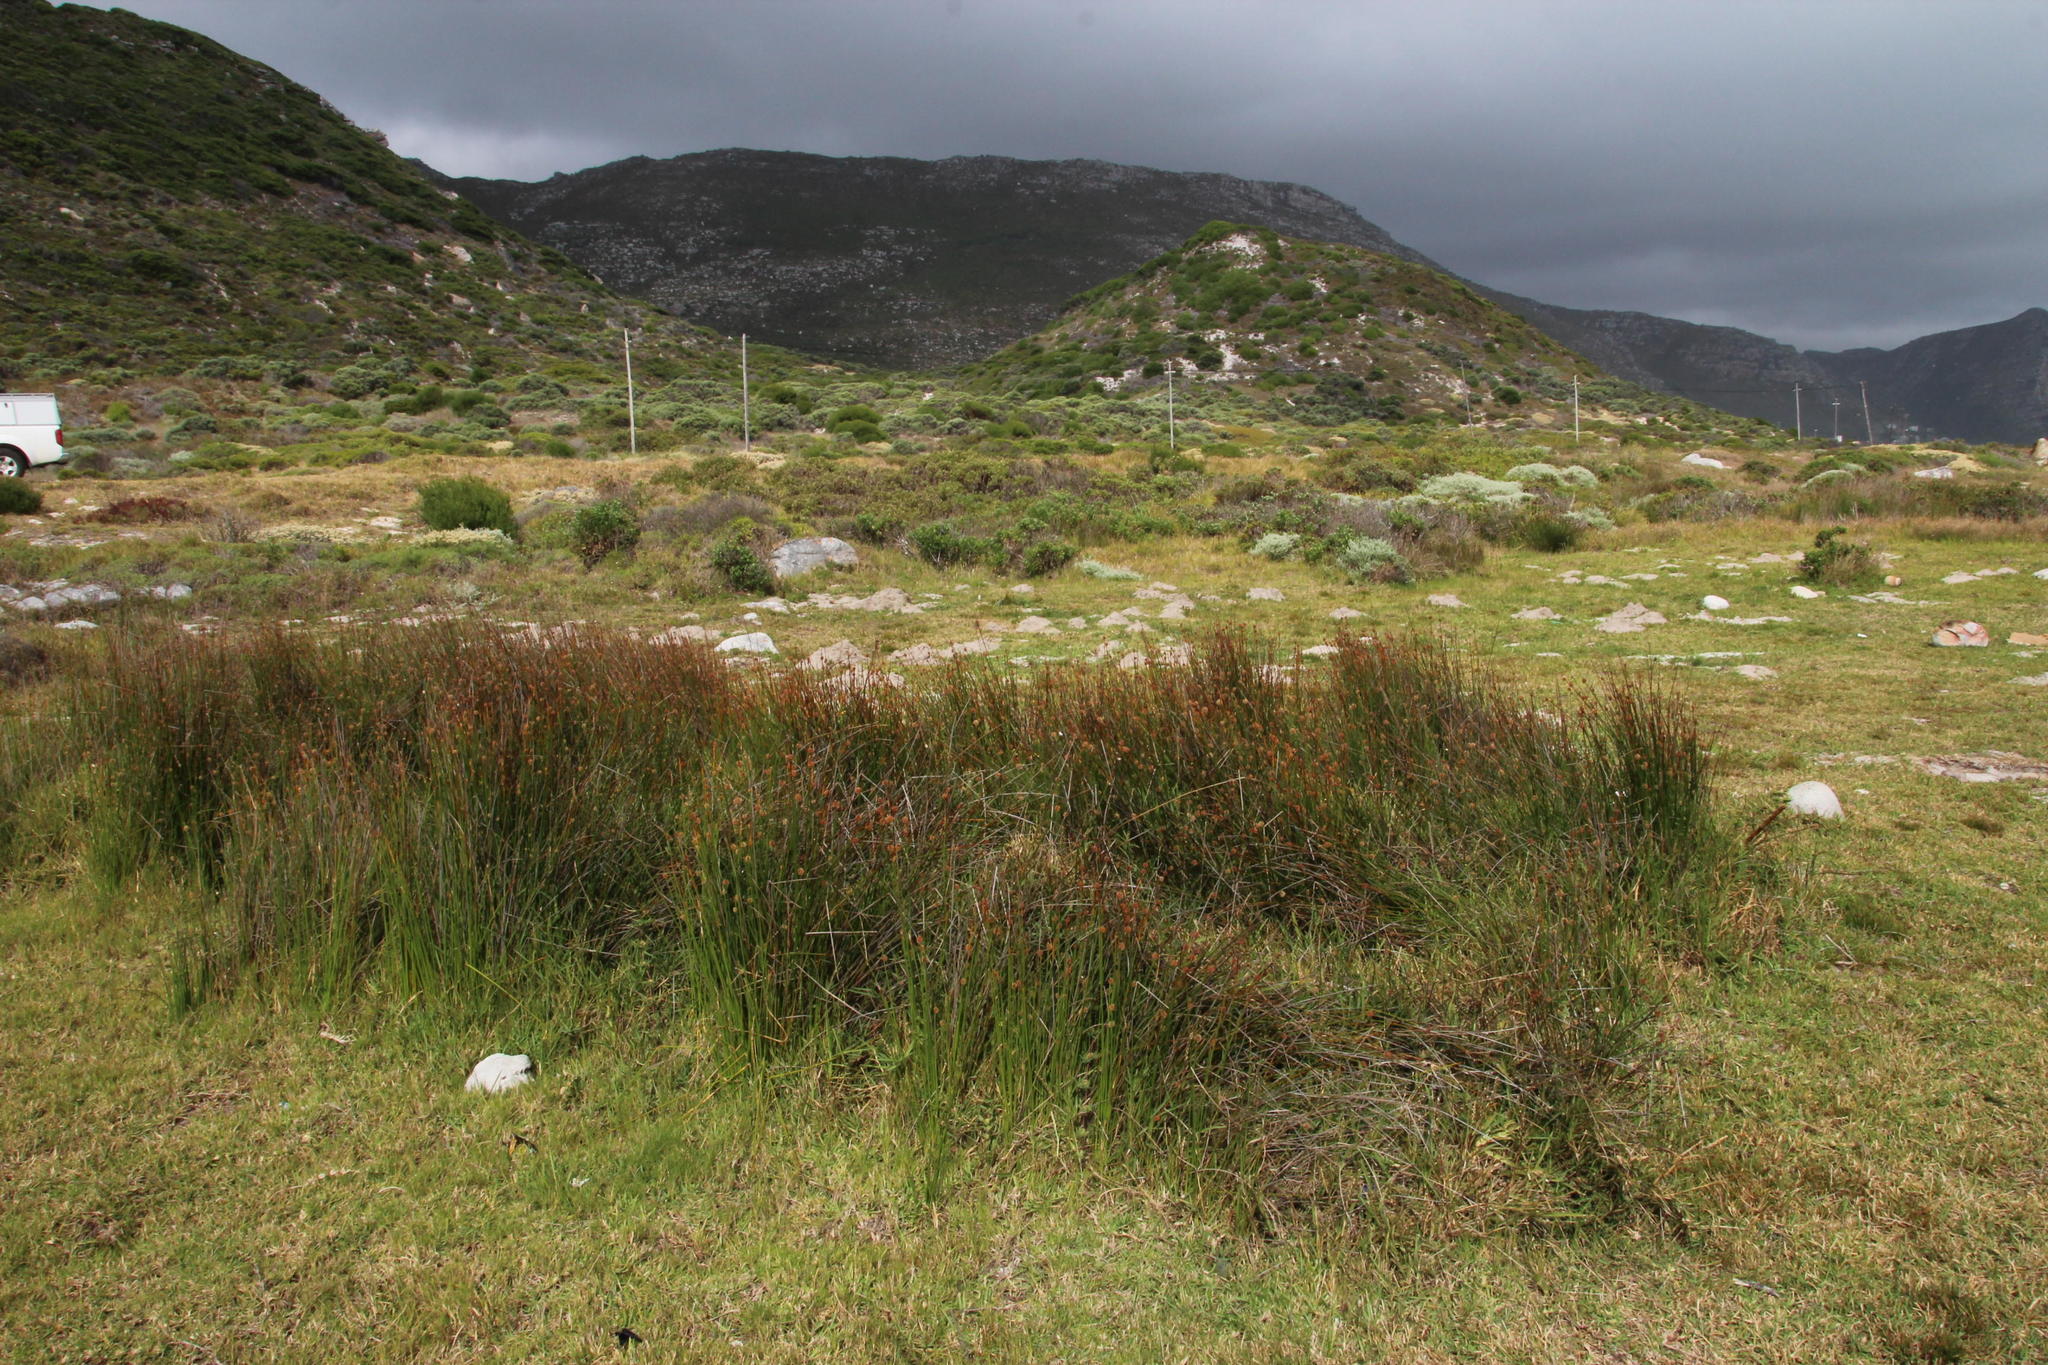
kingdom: Plantae
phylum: Tracheophyta
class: Liliopsida
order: Poales
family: Cyperaceae
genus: Ficinia
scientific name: Ficinia nodosa
